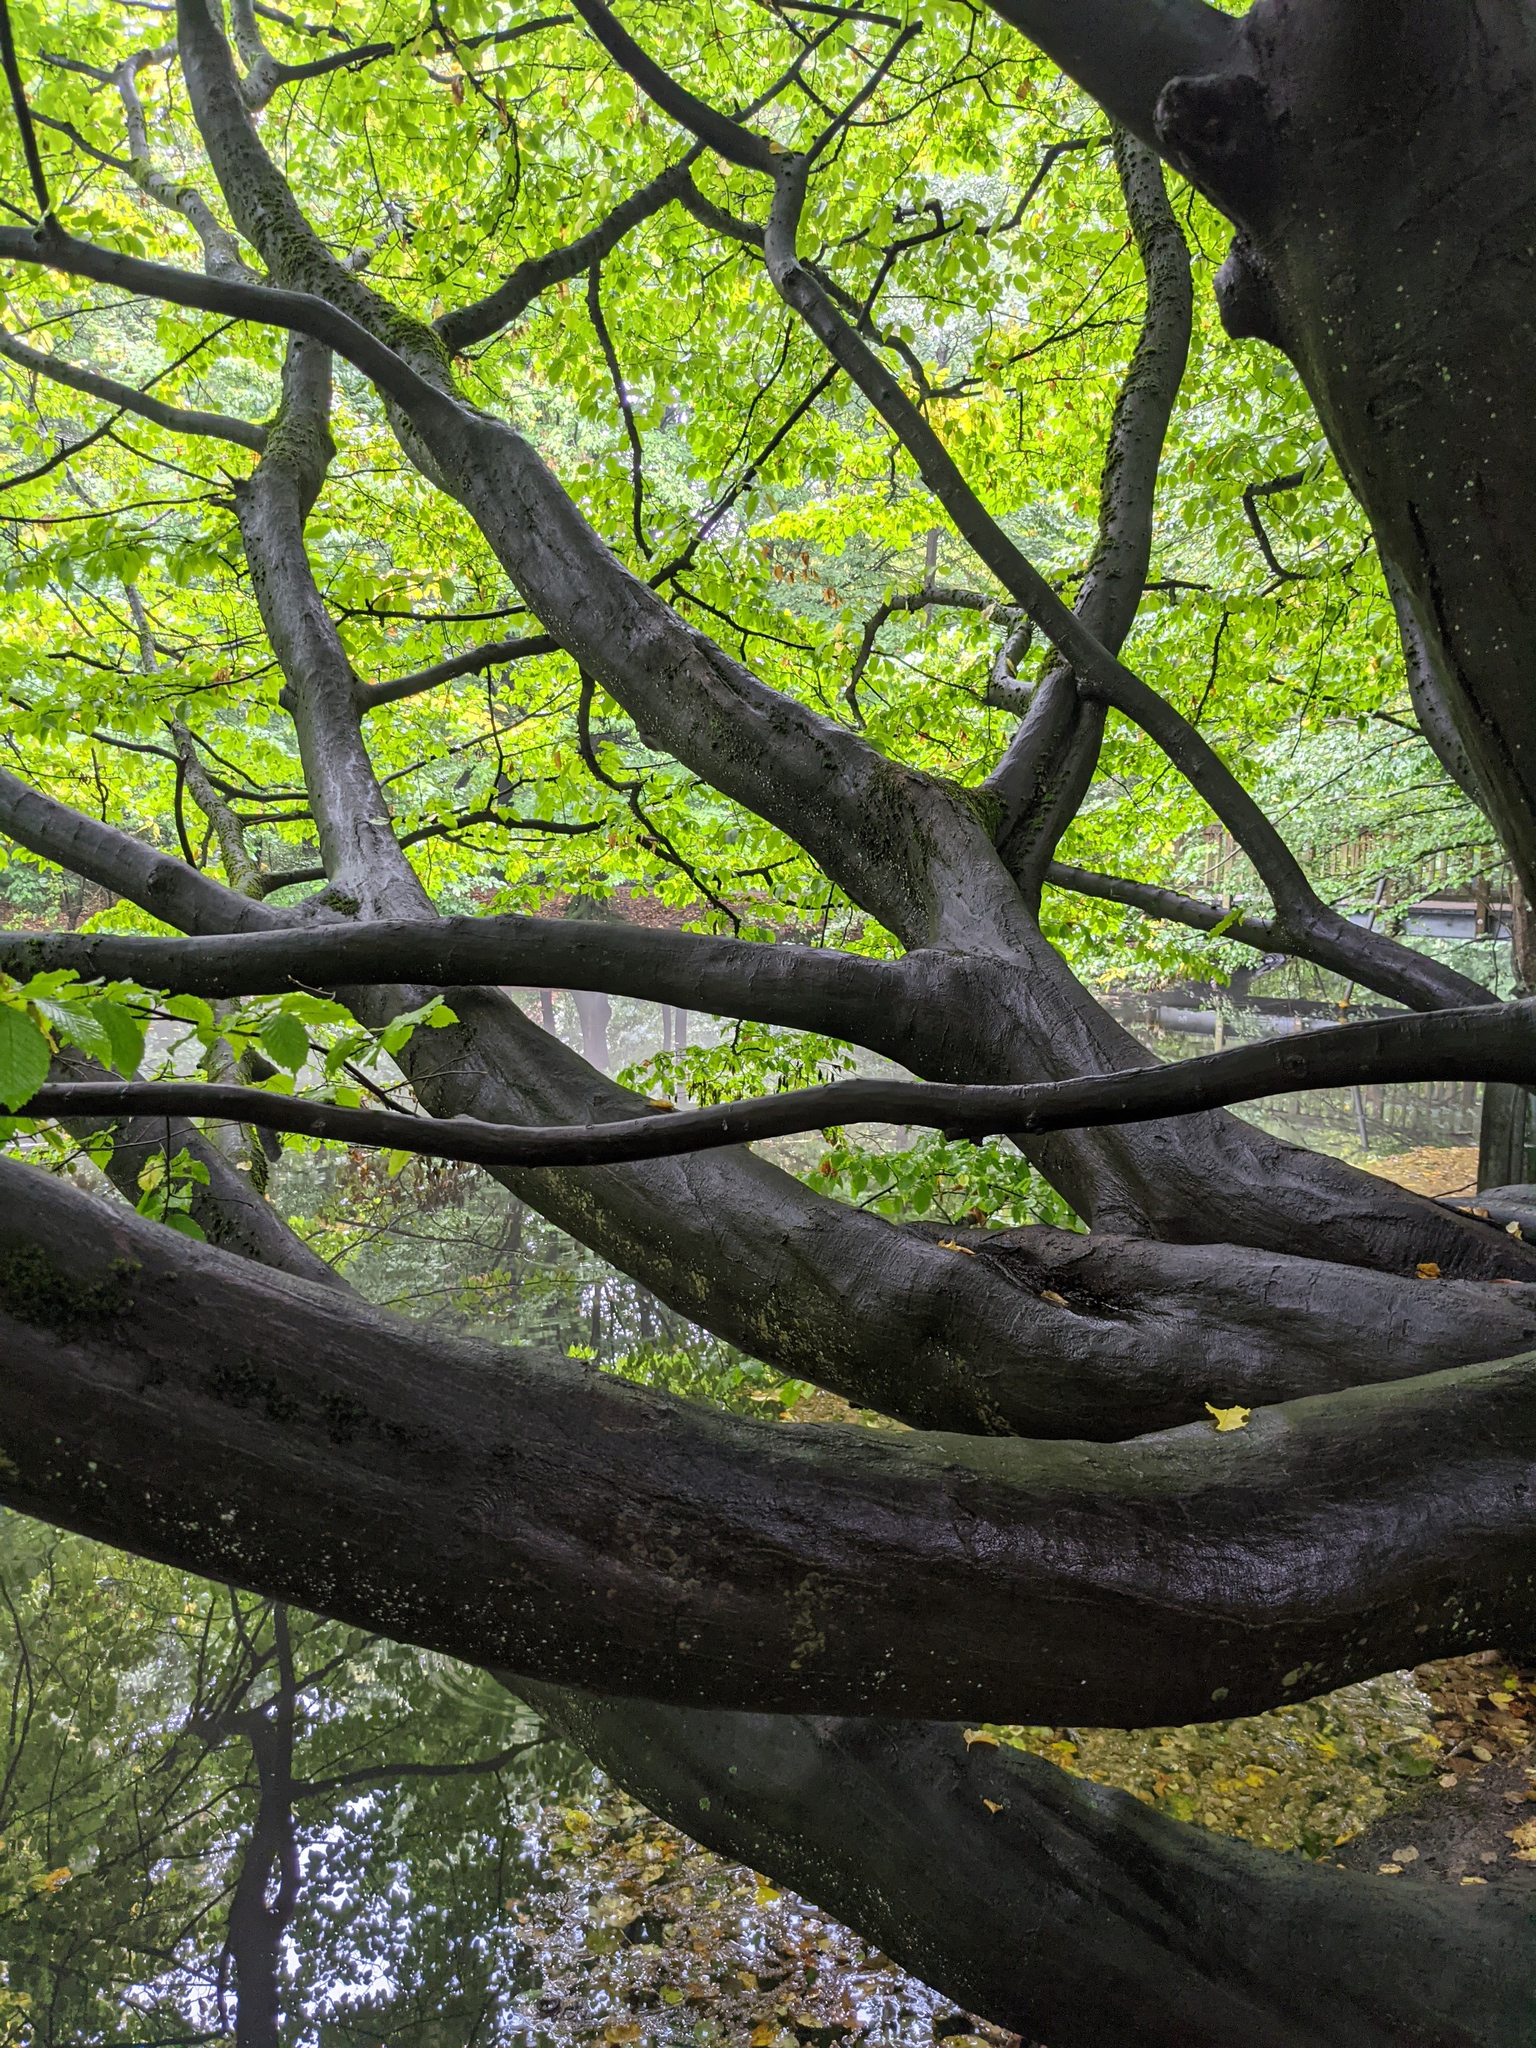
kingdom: Plantae
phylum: Tracheophyta
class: Magnoliopsida
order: Fagales
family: Betulaceae
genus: Carpinus
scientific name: Carpinus betulus
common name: Hornbeam
